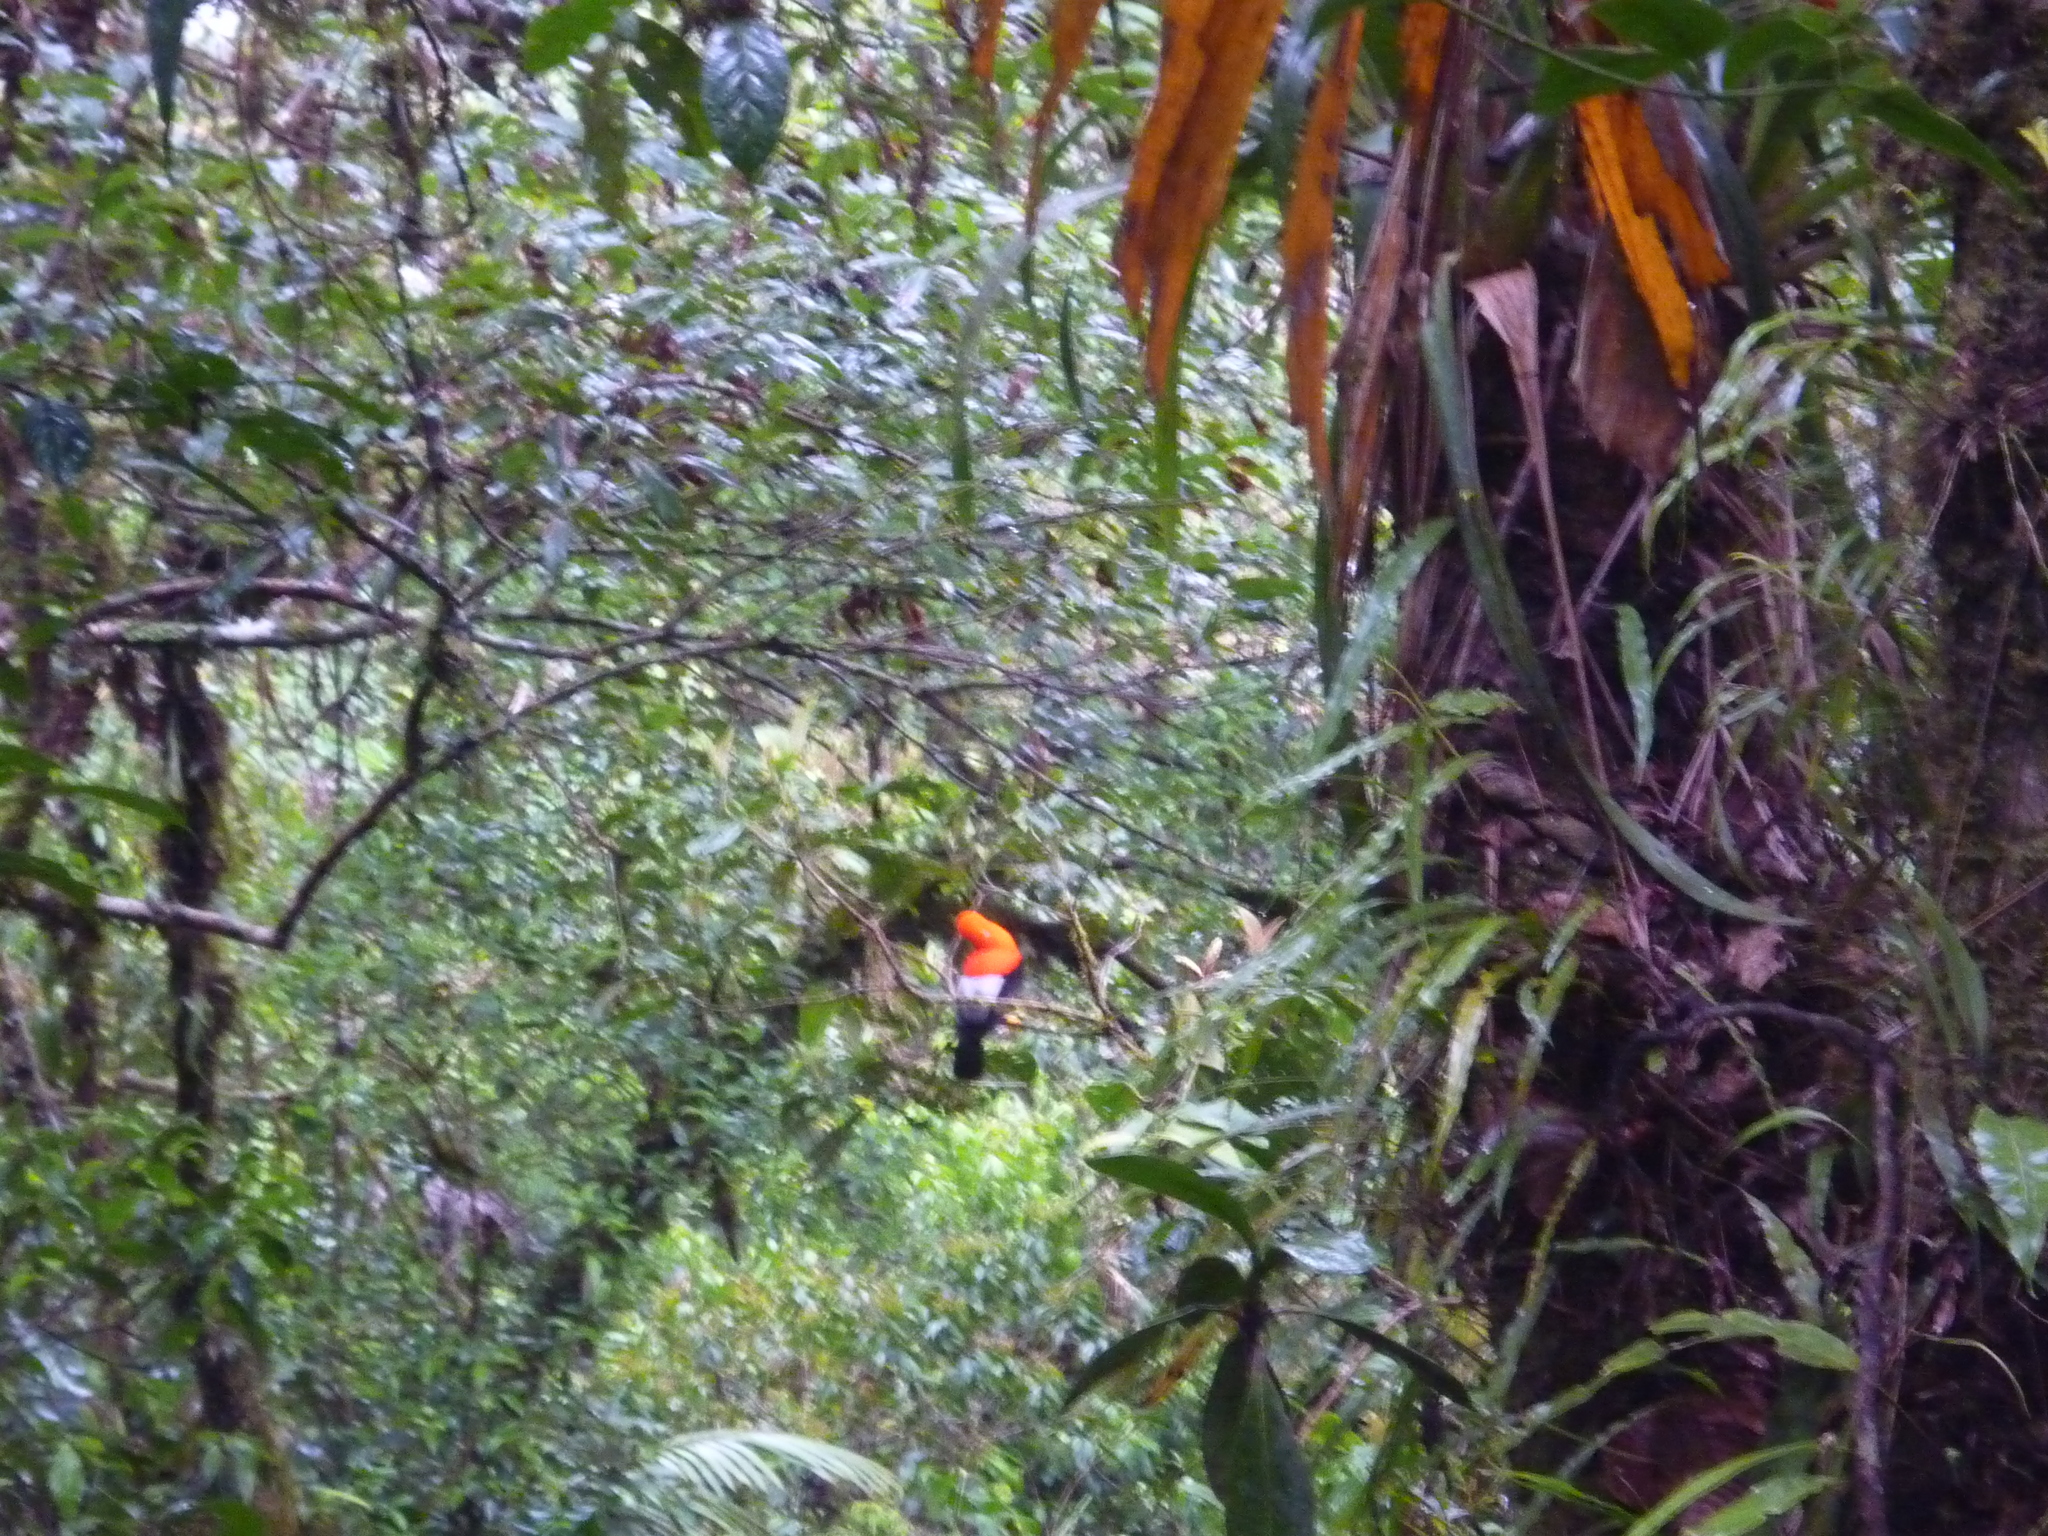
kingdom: Animalia
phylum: Chordata
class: Aves
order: Passeriformes
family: Cotingidae
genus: Rupicola
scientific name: Rupicola peruvianus
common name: Andean cock-of-the-rock
